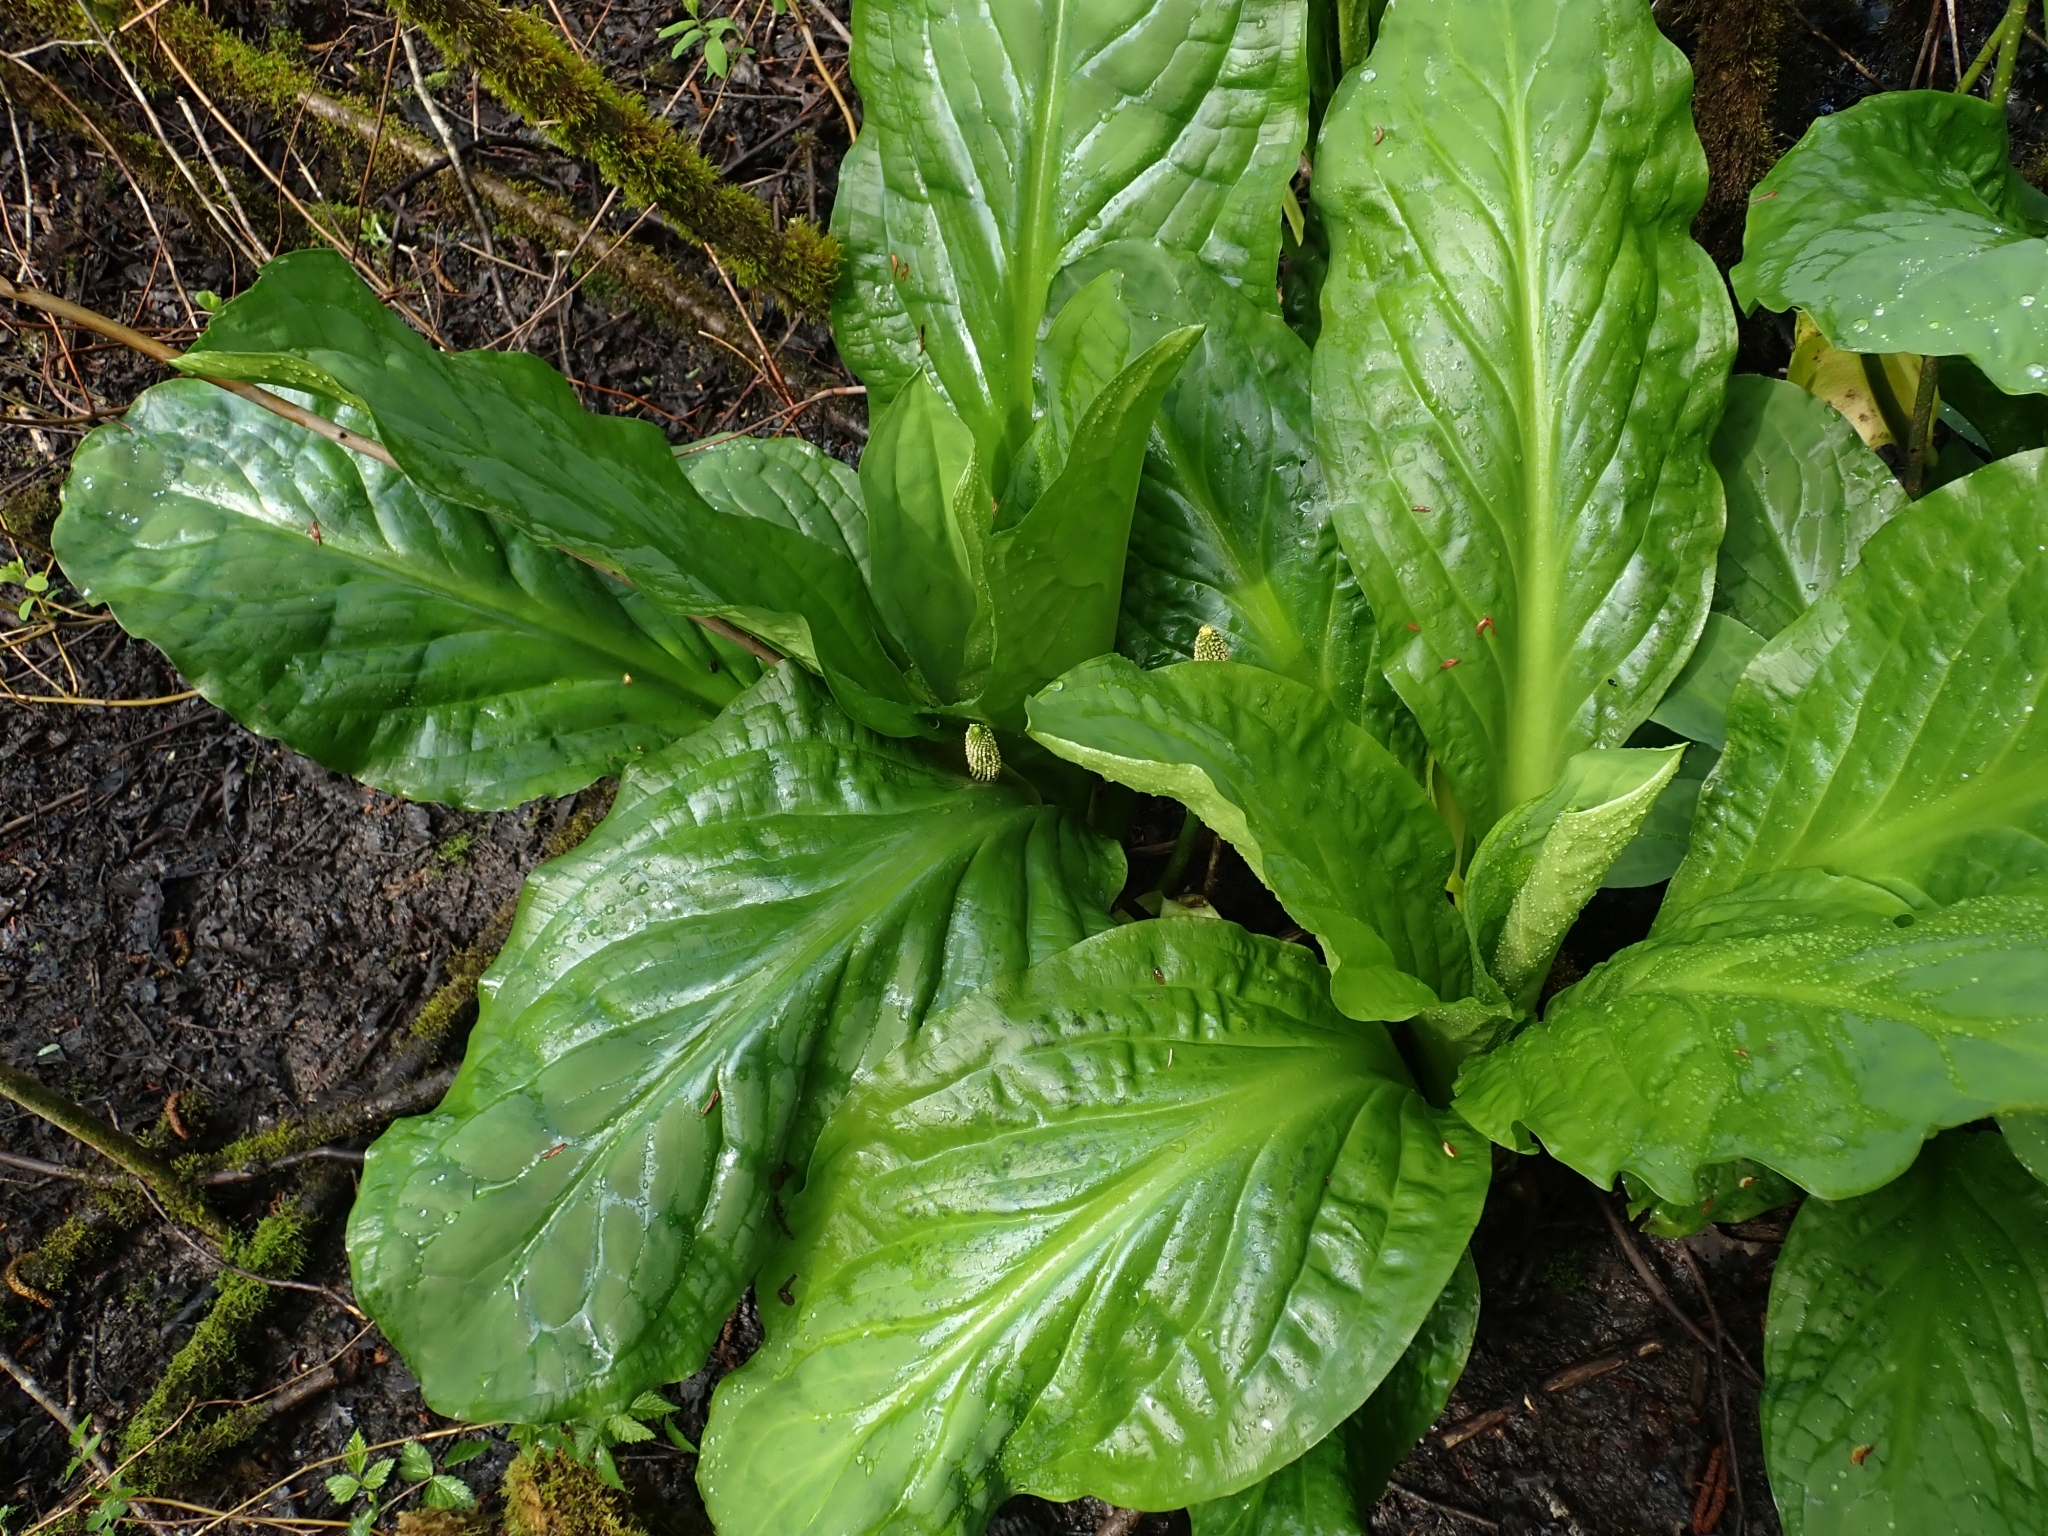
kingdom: Plantae
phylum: Tracheophyta
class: Liliopsida
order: Alismatales
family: Araceae
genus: Lysichiton
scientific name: Lysichiton americanus
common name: American skunk cabbage
